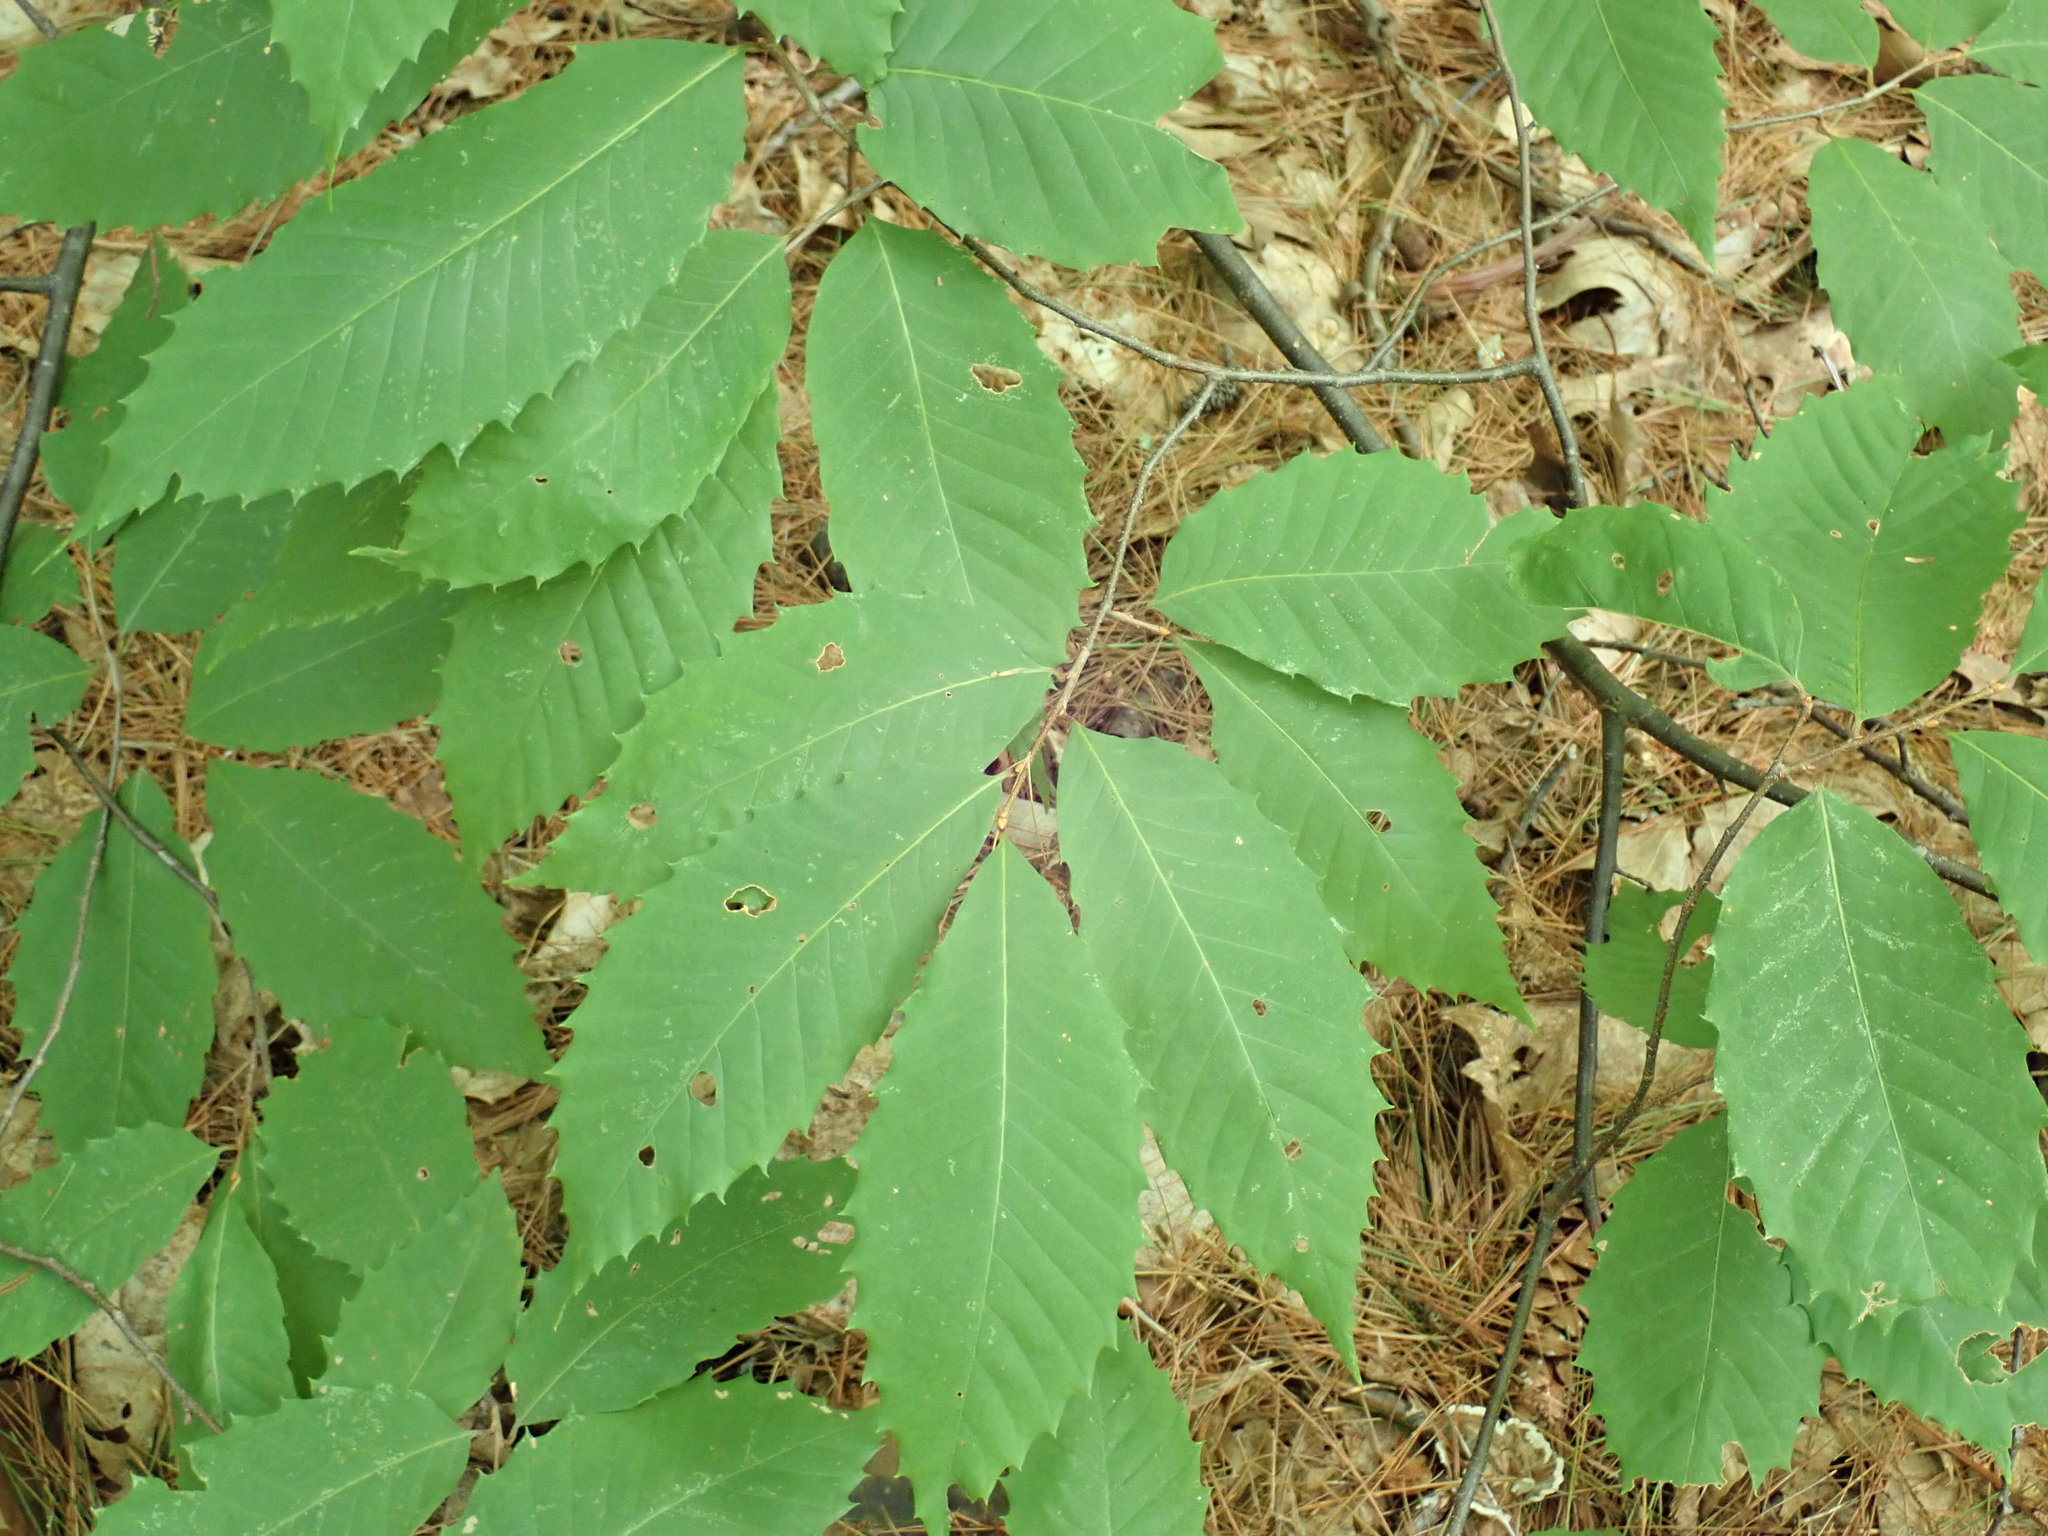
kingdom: Plantae
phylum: Tracheophyta
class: Magnoliopsida
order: Fagales
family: Fagaceae
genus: Castanea
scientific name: Castanea dentata
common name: American chestnut
